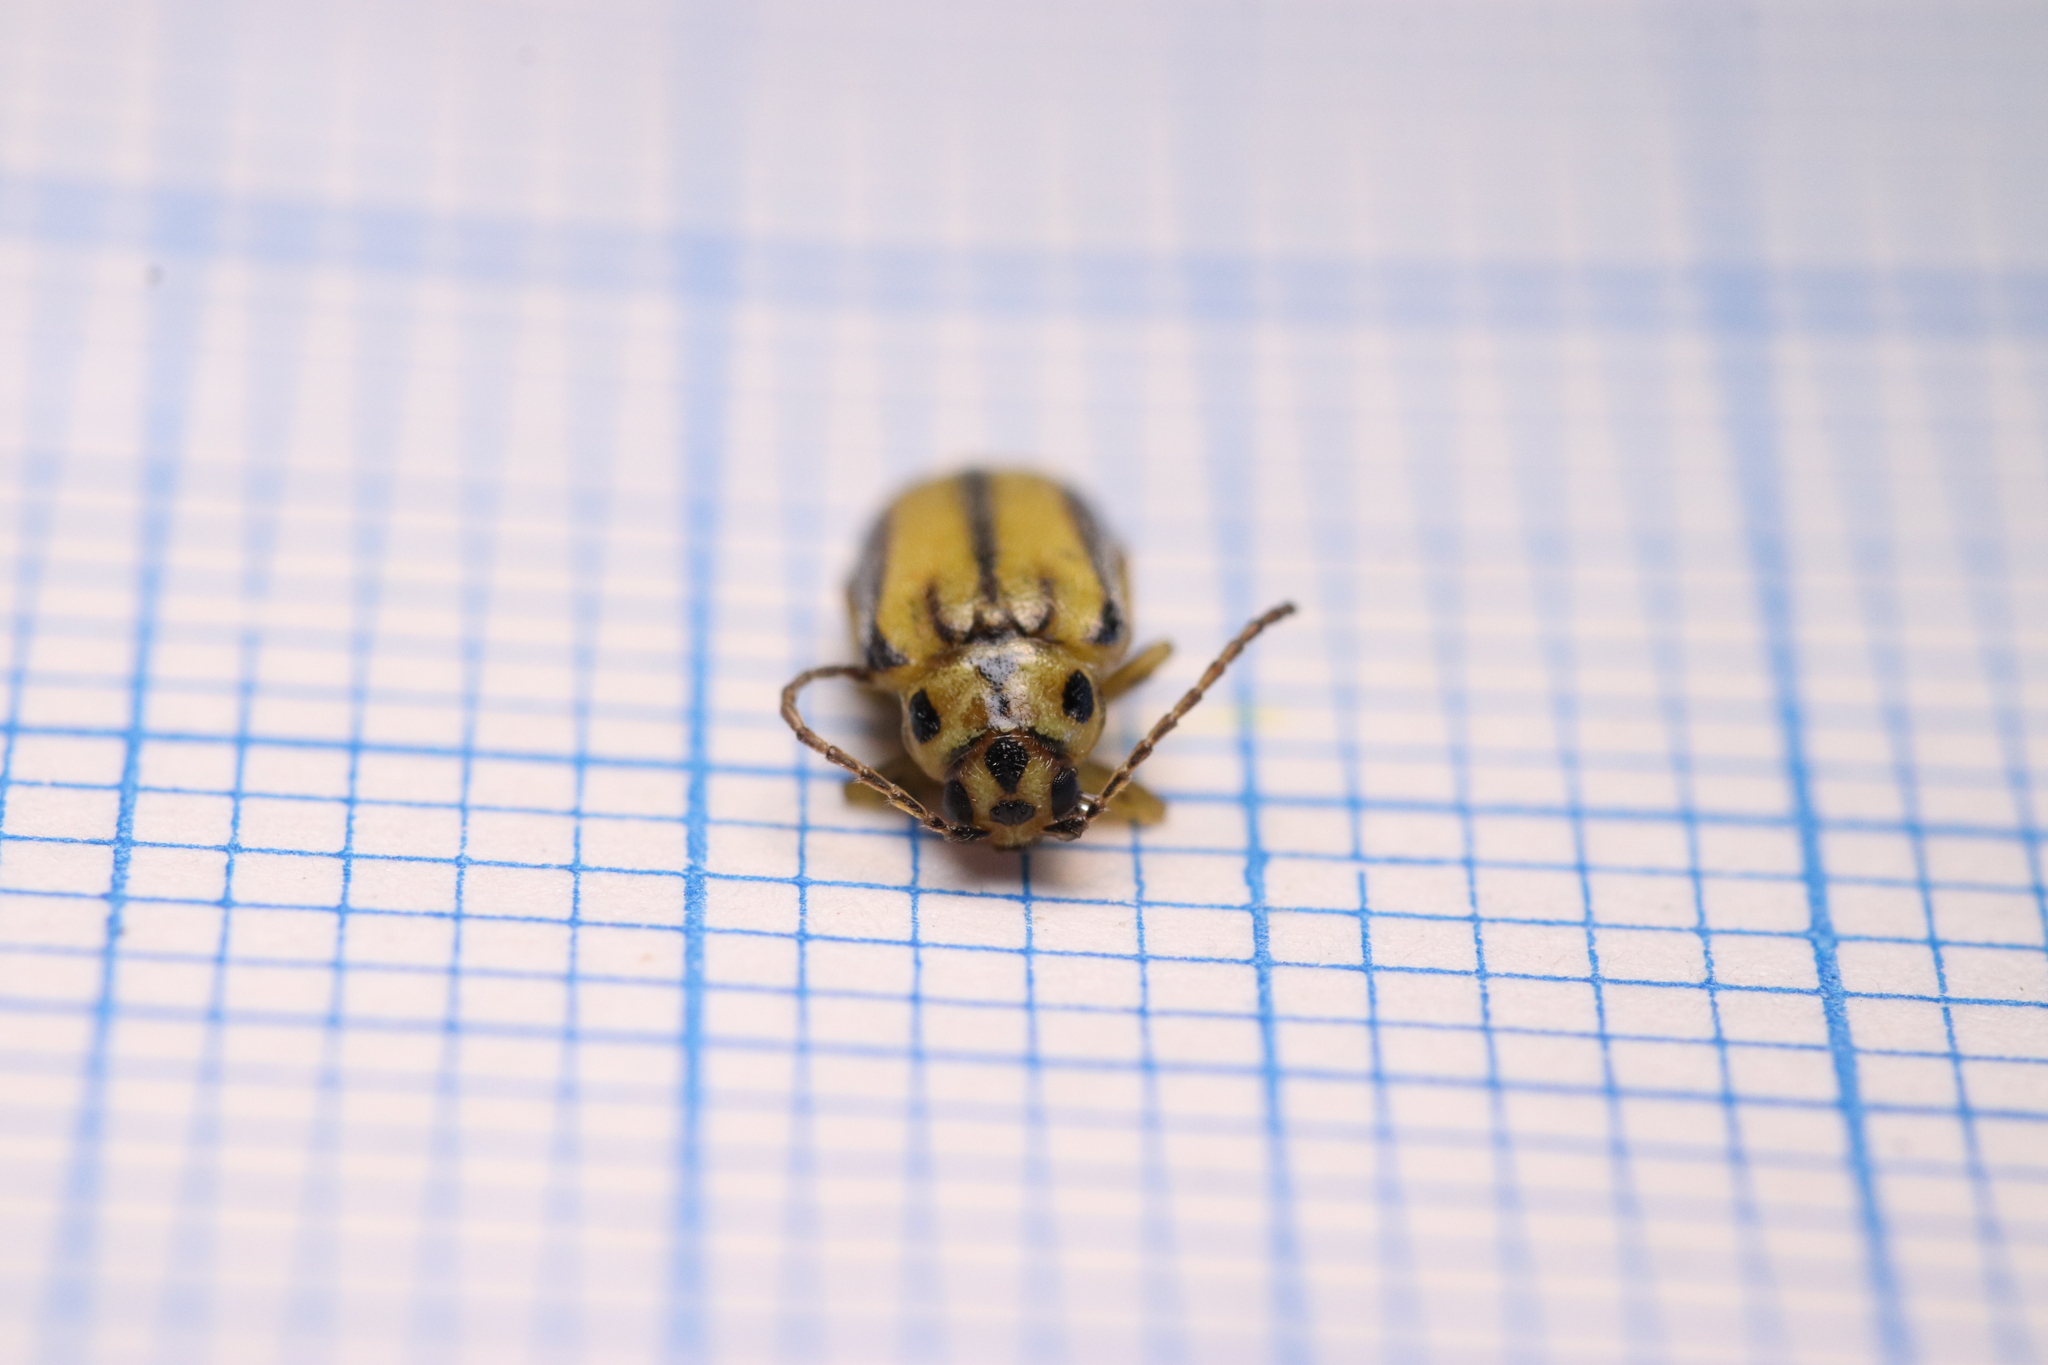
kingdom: Animalia
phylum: Arthropoda
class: Insecta
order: Coleoptera
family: Chrysomelidae
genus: Xanthogaleruca
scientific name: Xanthogaleruca luteola
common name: Elm leaf beetle
